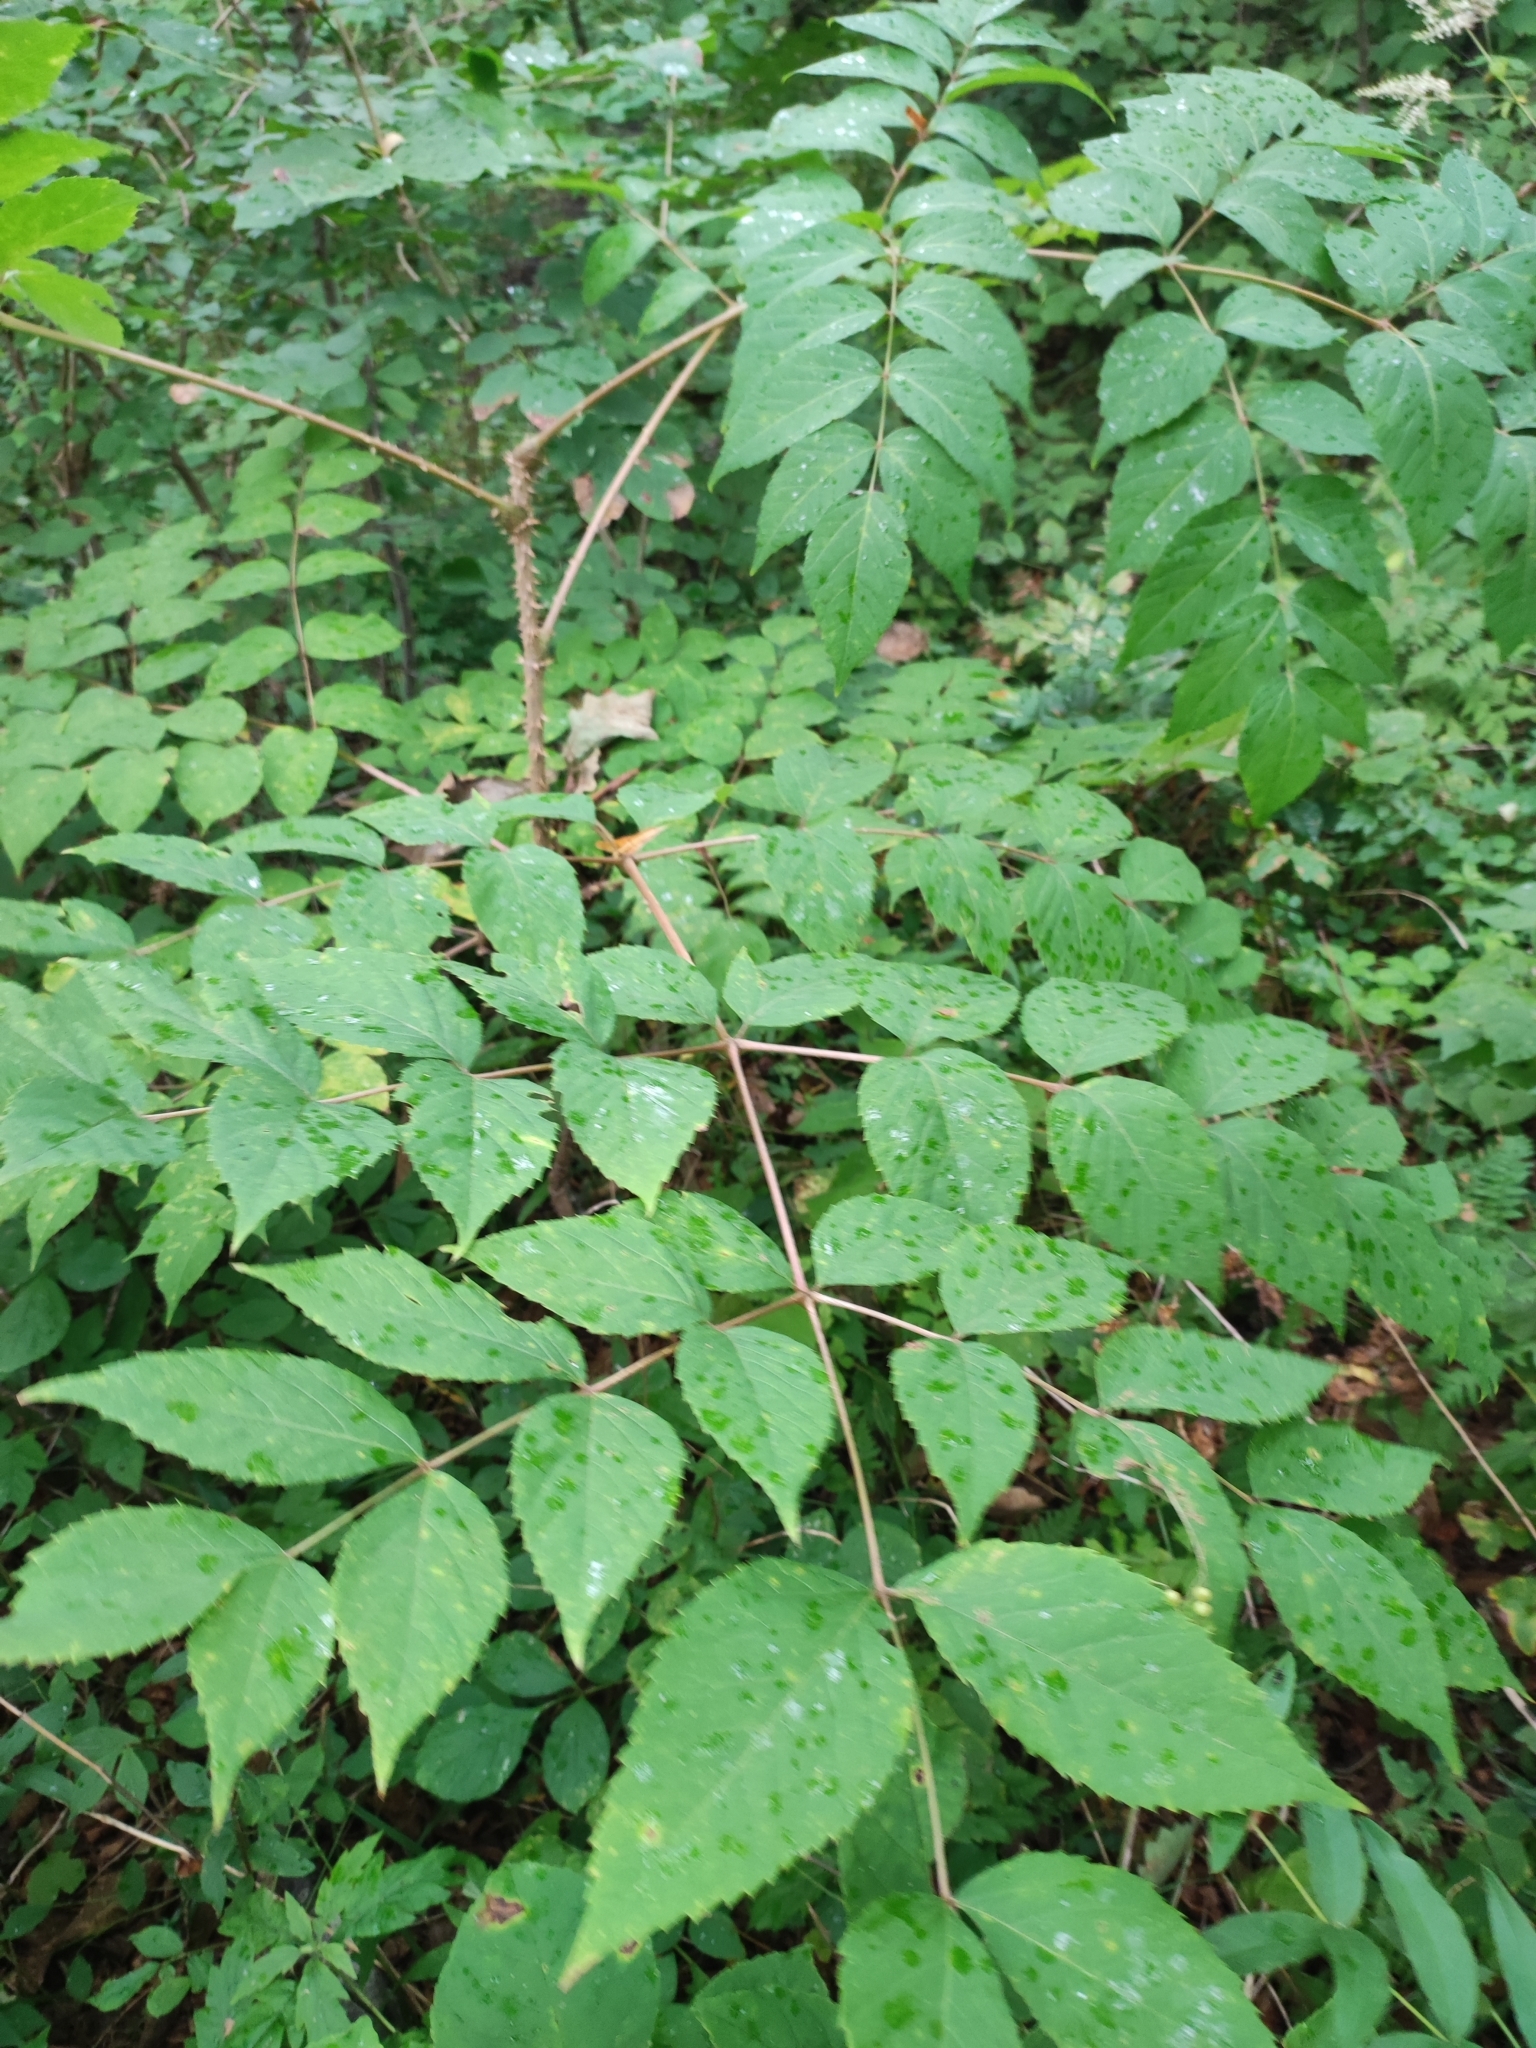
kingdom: Plantae
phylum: Tracheophyta
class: Magnoliopsida
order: Apiales
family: Araliaceae
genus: Aralia
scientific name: Aralia elata
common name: Japanese angelica-tree
